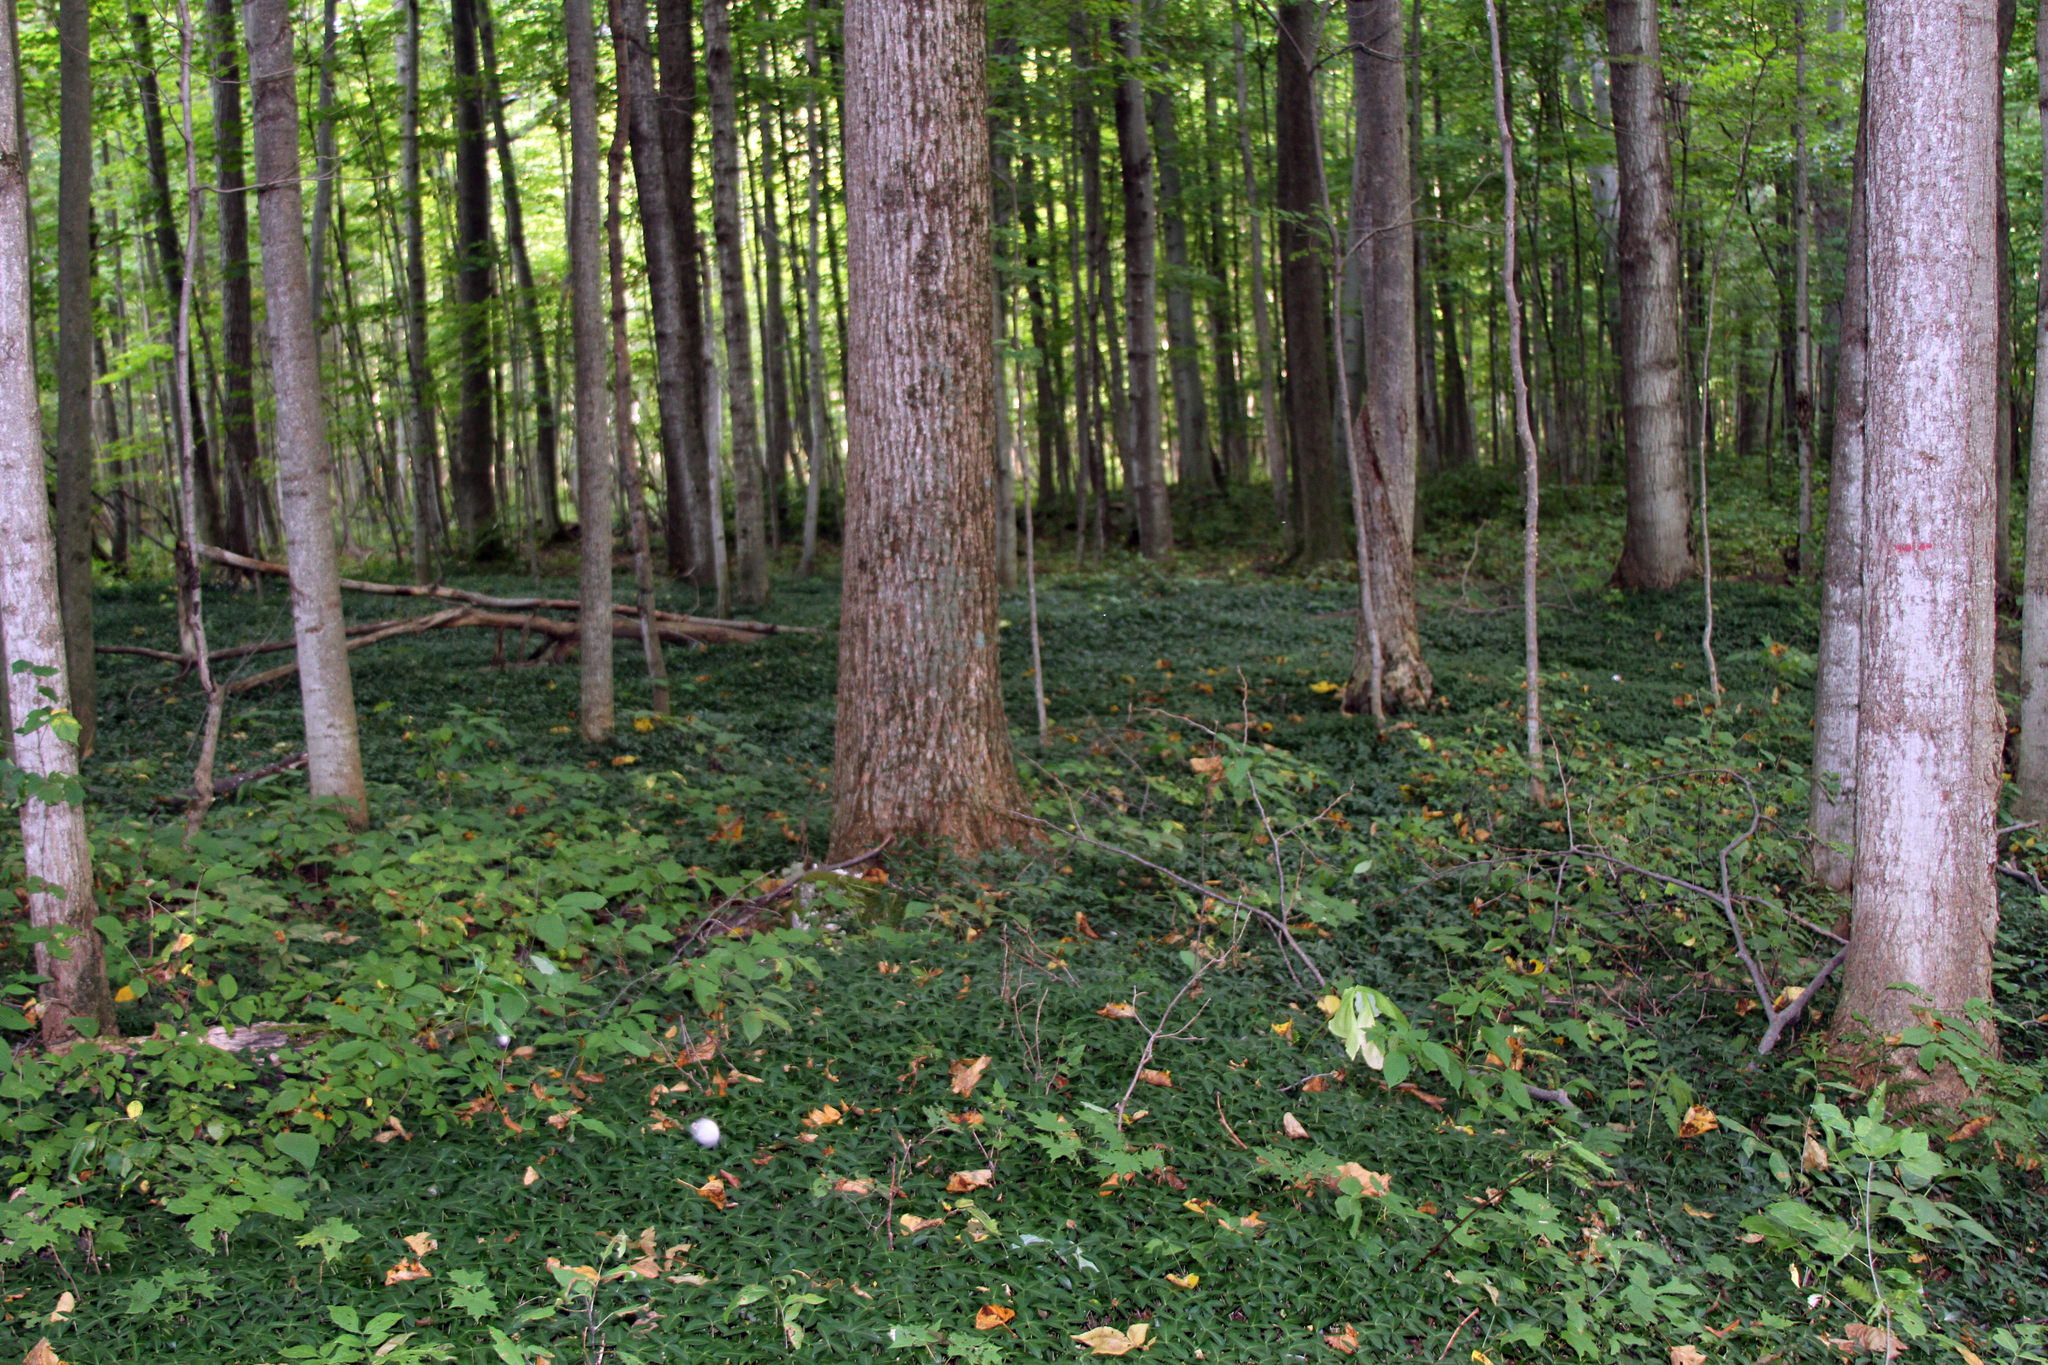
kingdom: Plantae
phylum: Tracheophyta
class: Magnoliopsida
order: Gentianales
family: Apocynaceae
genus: Vinca
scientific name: Vinca minor
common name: Lesser periwinkle
